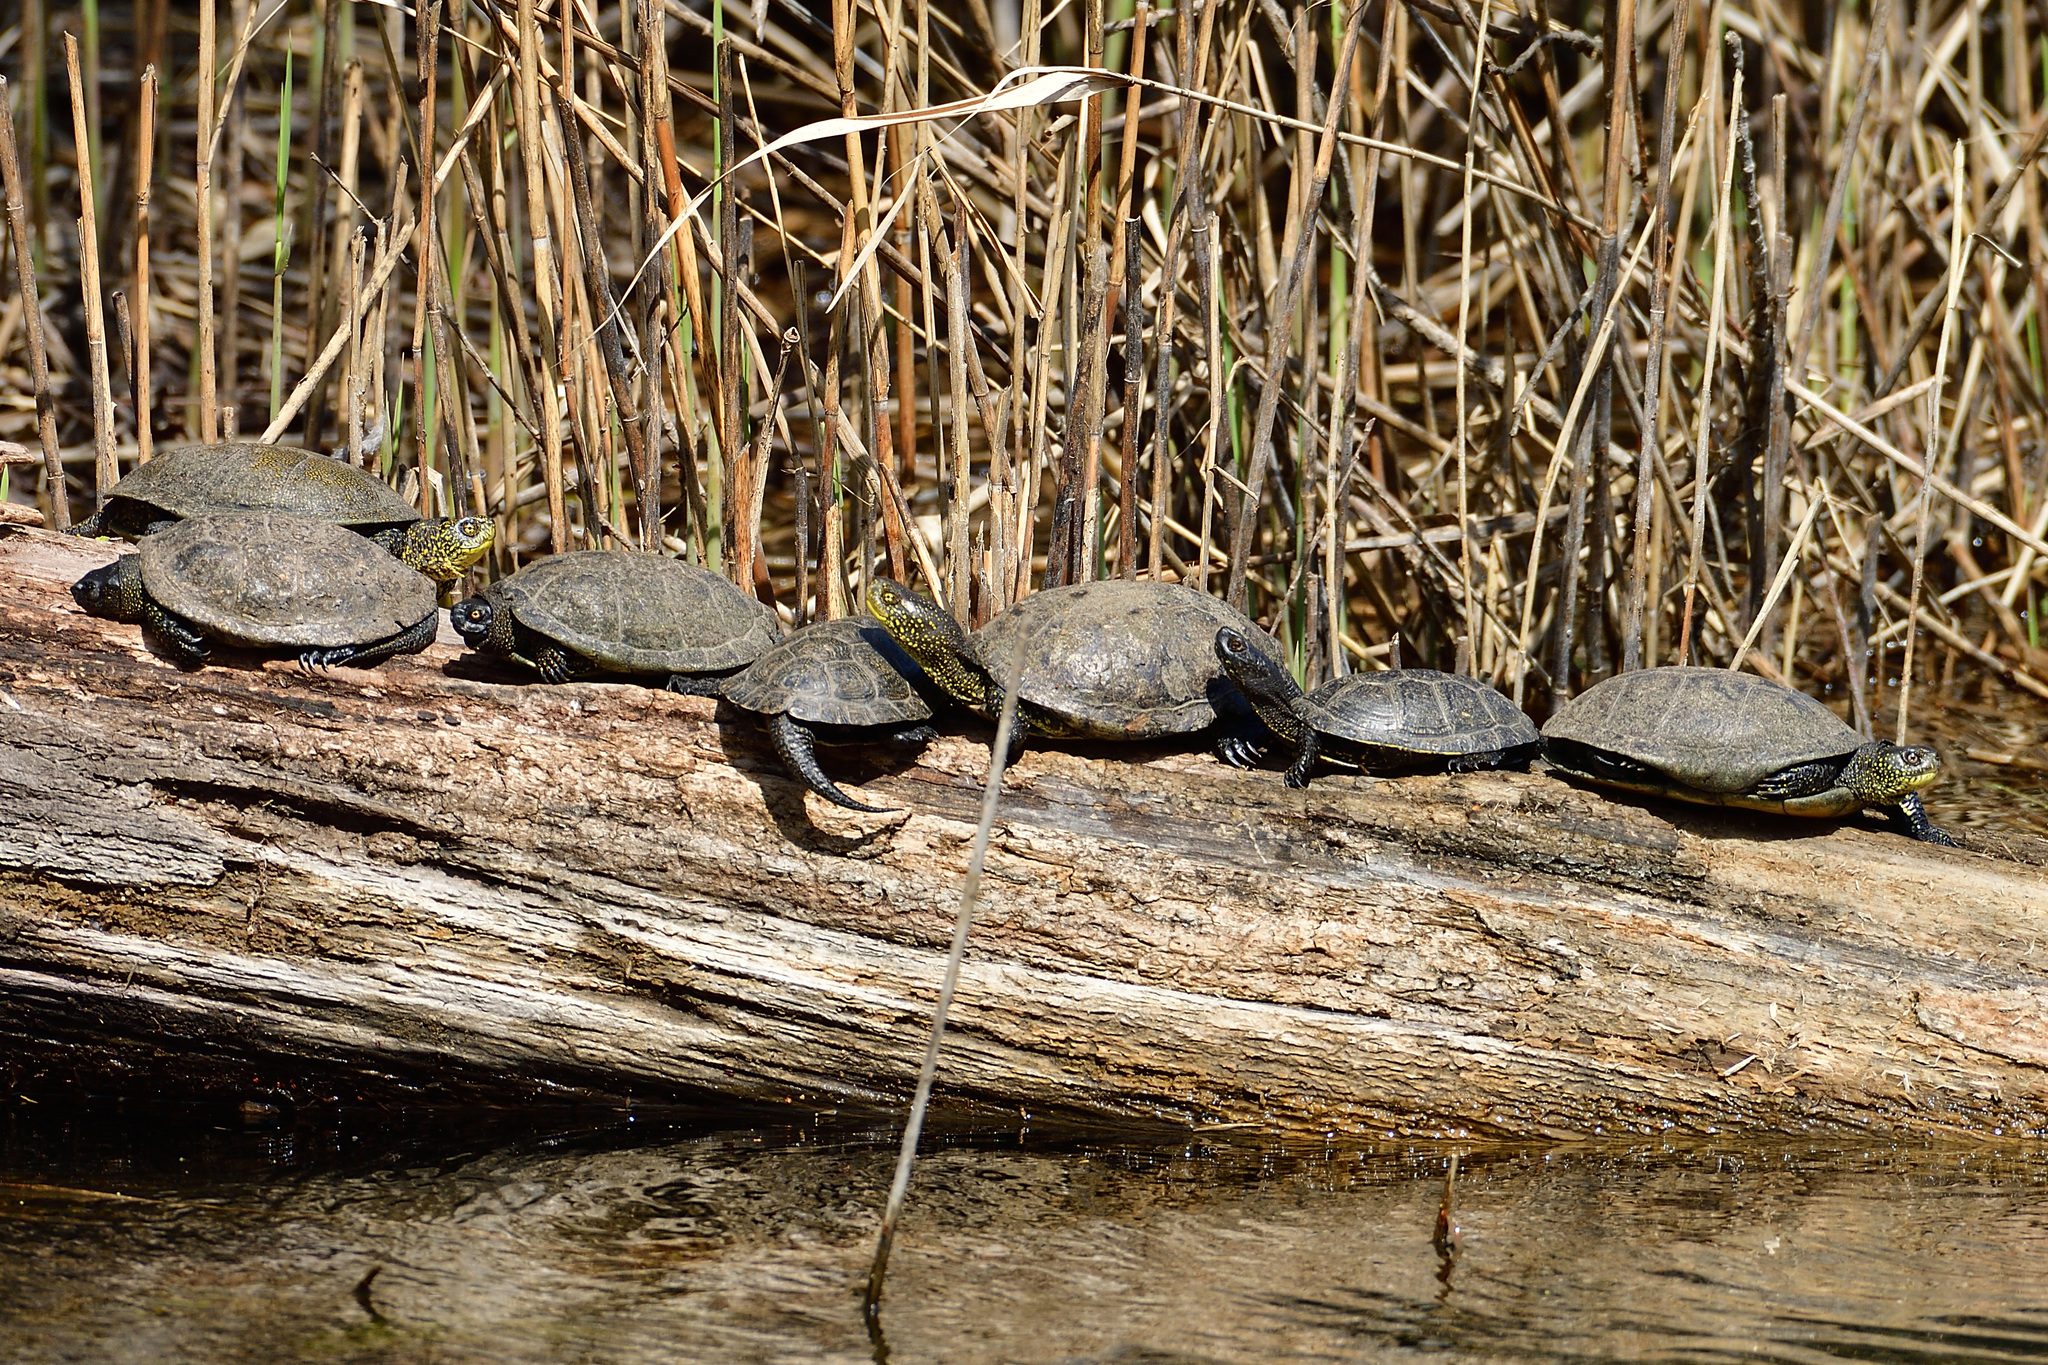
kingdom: Animalia
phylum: Chordata
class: Testudines
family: Emydidae
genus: Emys
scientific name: Emys orbicularis
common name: European pond turtle
